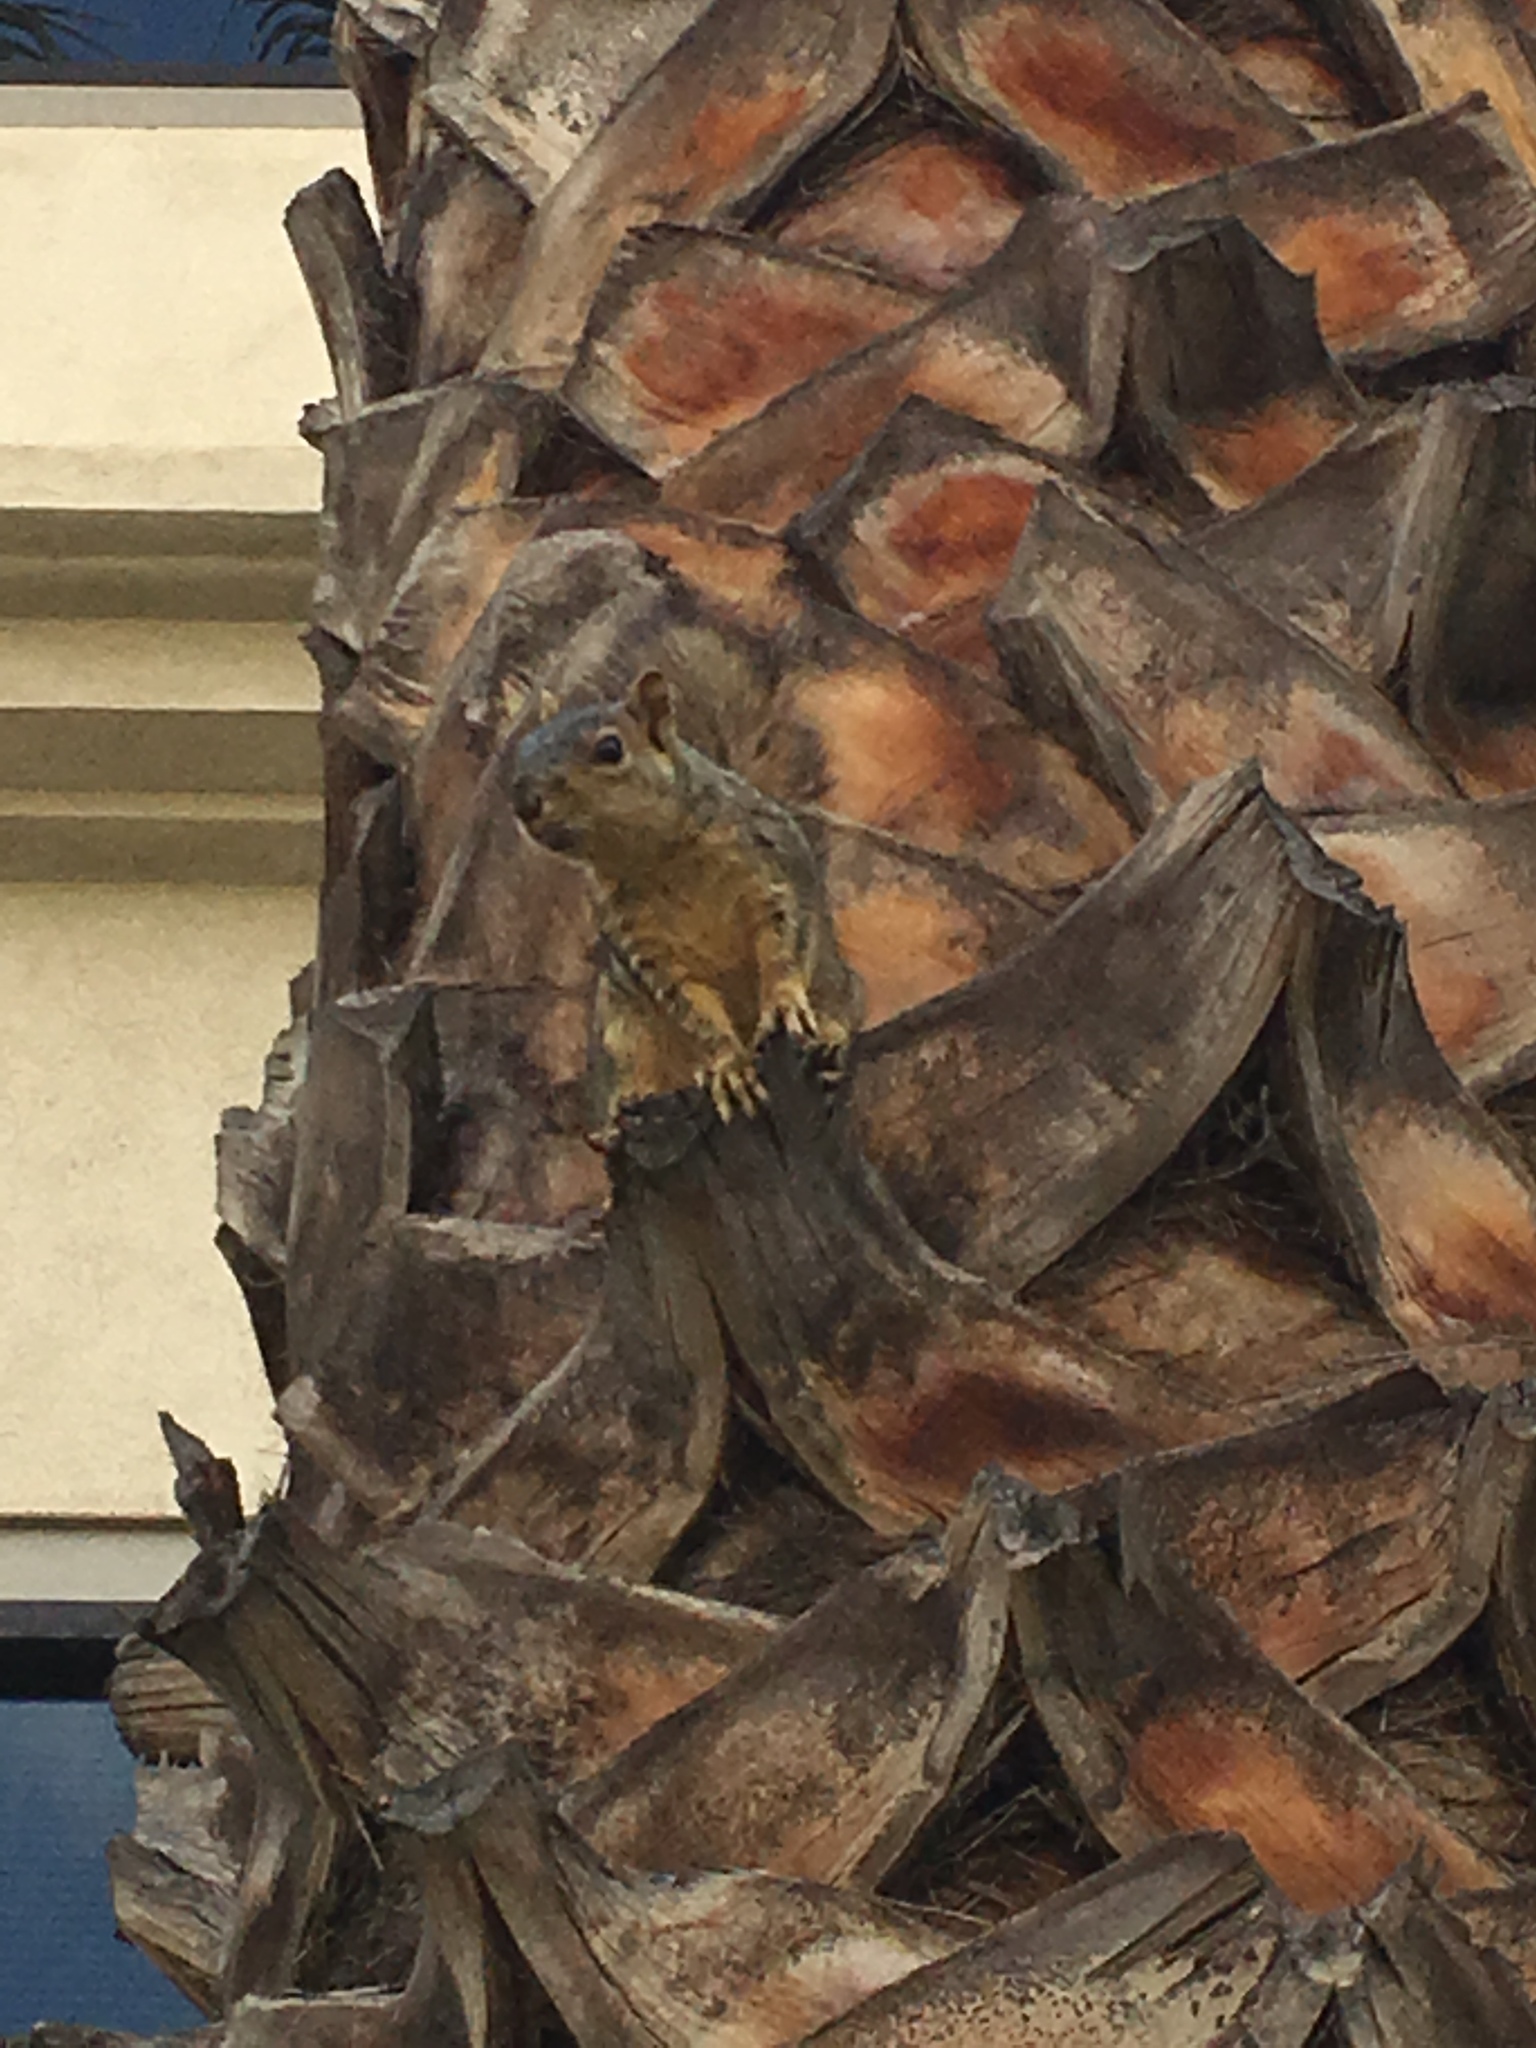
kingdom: Animalia
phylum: Chordata
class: Mammalia
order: Rodentia
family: Sciuridae
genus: Sciurus
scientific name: Sciurus niger
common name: Fox squirrel
